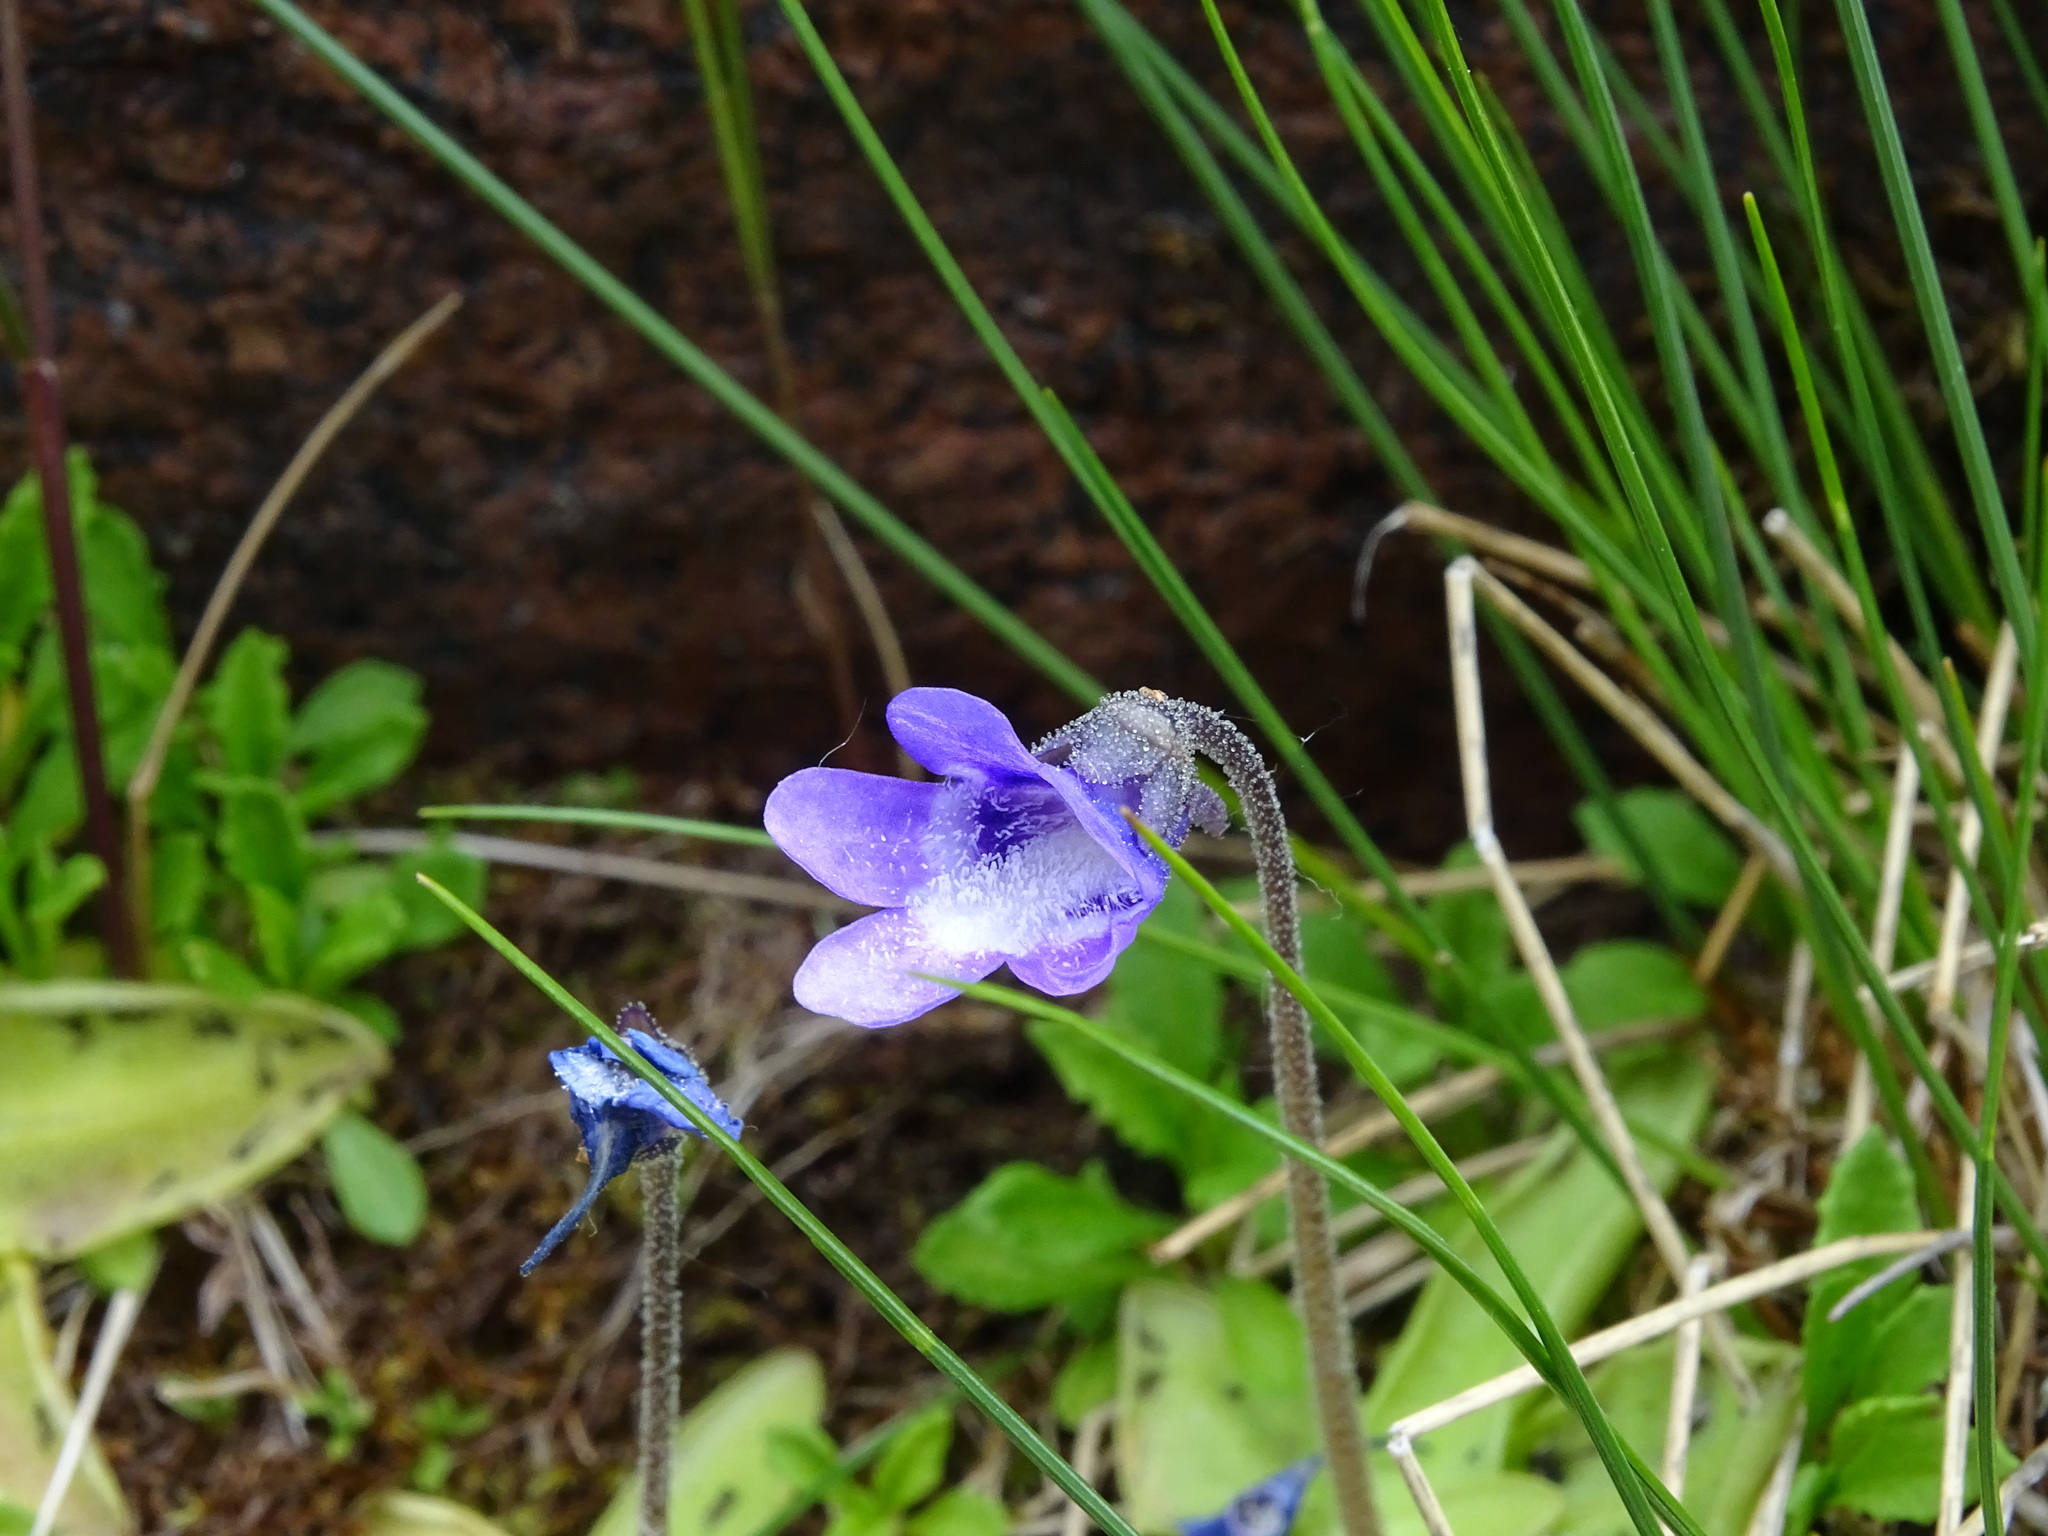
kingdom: Plantae
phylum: Tracheophyta
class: Magnoliopsida
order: Lamiales
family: Lentibulariaceae
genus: Pinguicula
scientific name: Pinguicula vulgaris
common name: Common butterwort
